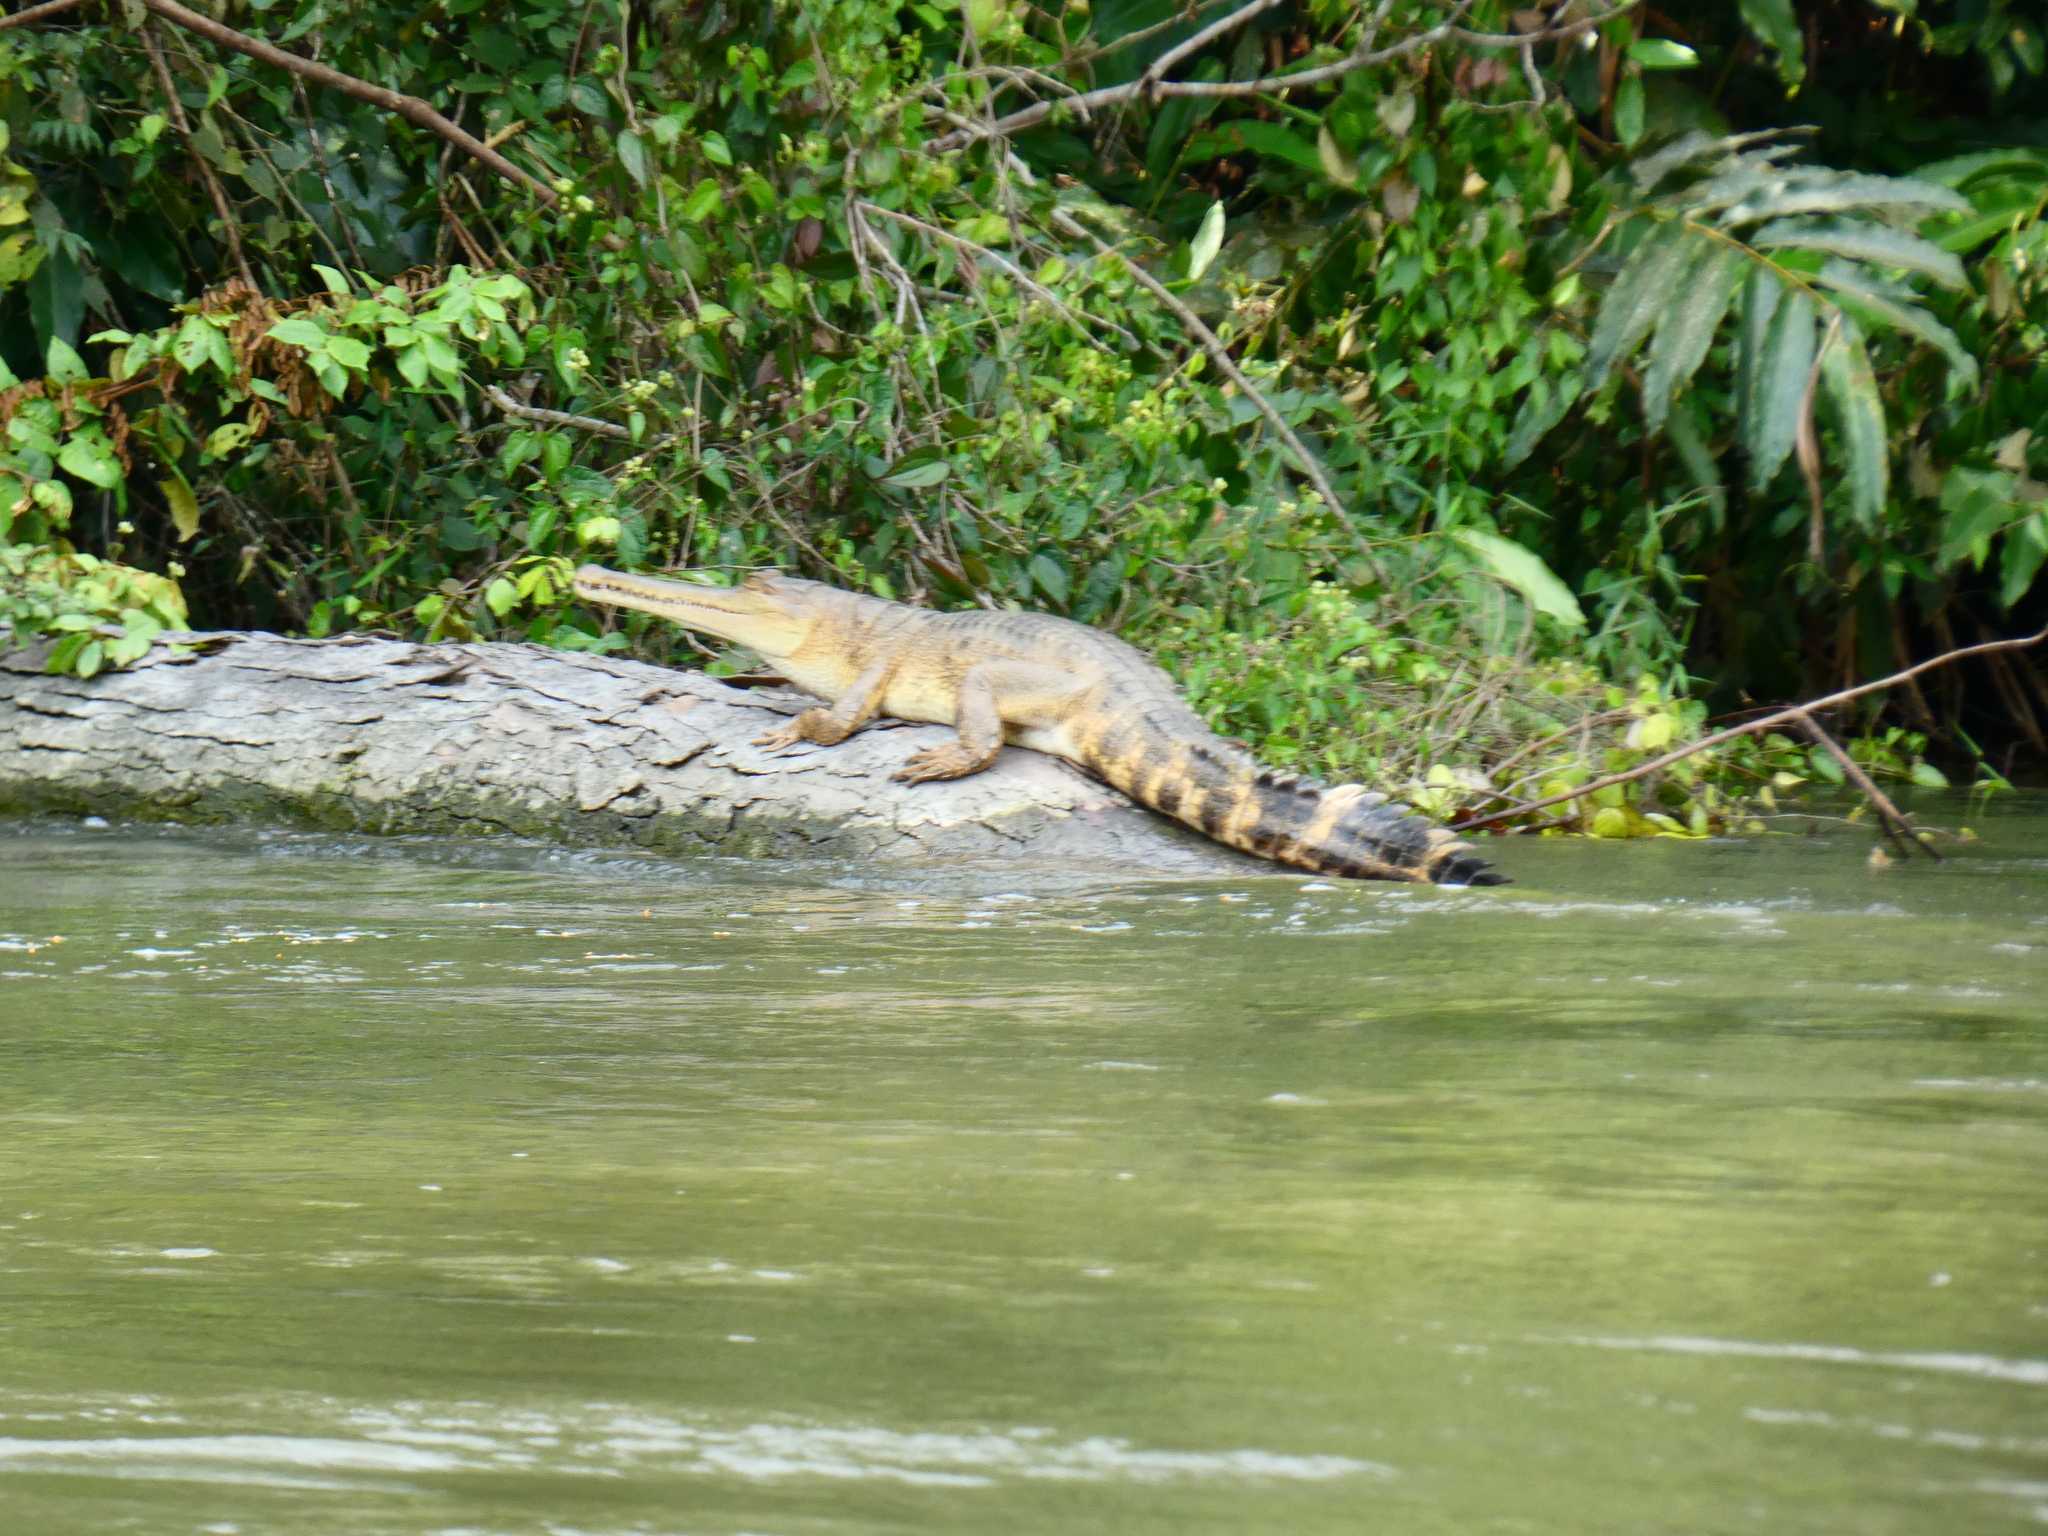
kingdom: Animalia
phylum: Chordata
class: Crocodylia
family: Crocodylidae
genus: Mecistops
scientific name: Mecistops leptorhynchus
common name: Central african slender-snouted crocodile
